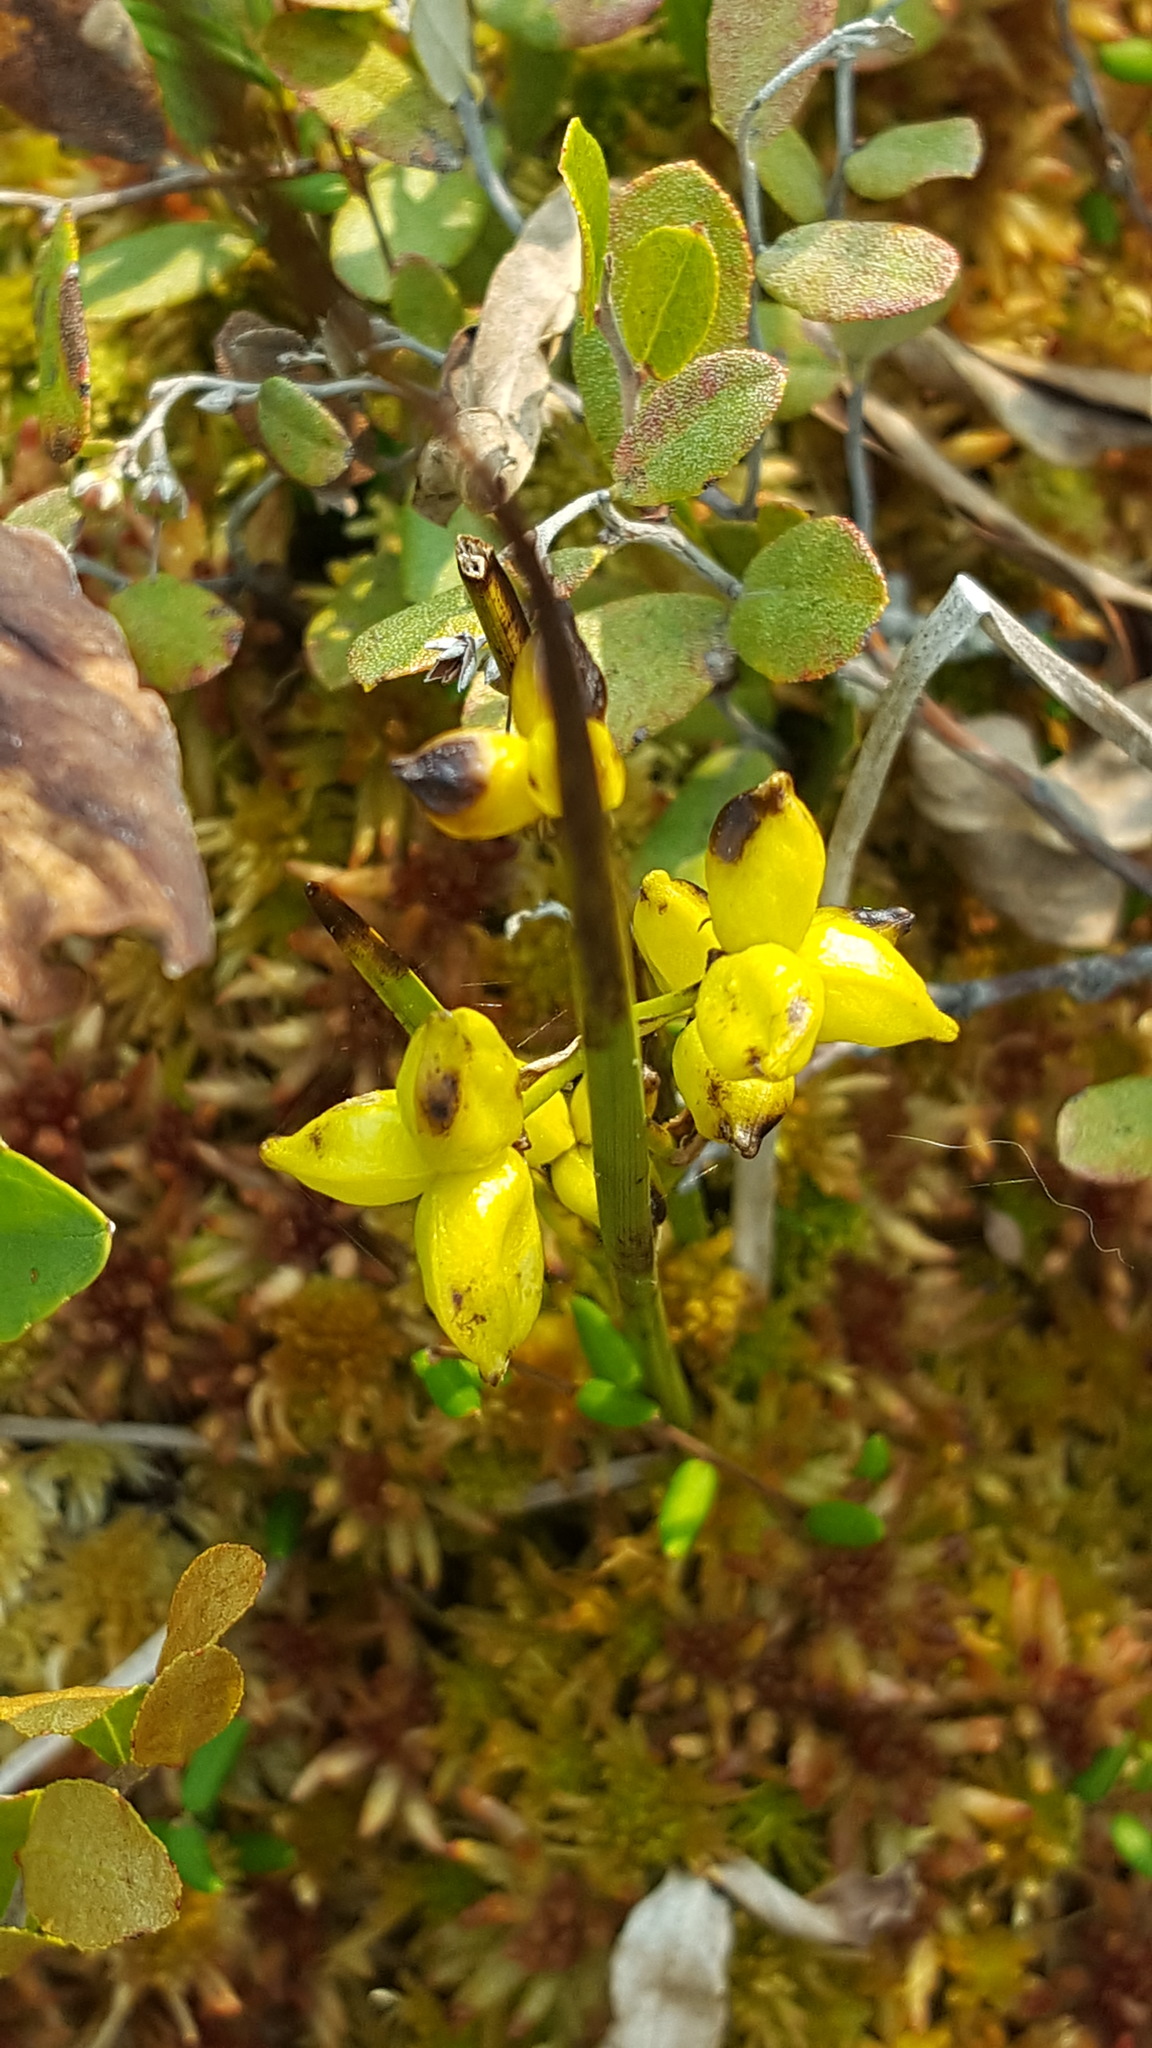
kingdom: Plantae
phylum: Tracheophyta
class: Liliopsida
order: Alismatales
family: Scheuchzeriaceae
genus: Scheuchzeria
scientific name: Scheuchzeria palustris
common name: Rannoch-rush
